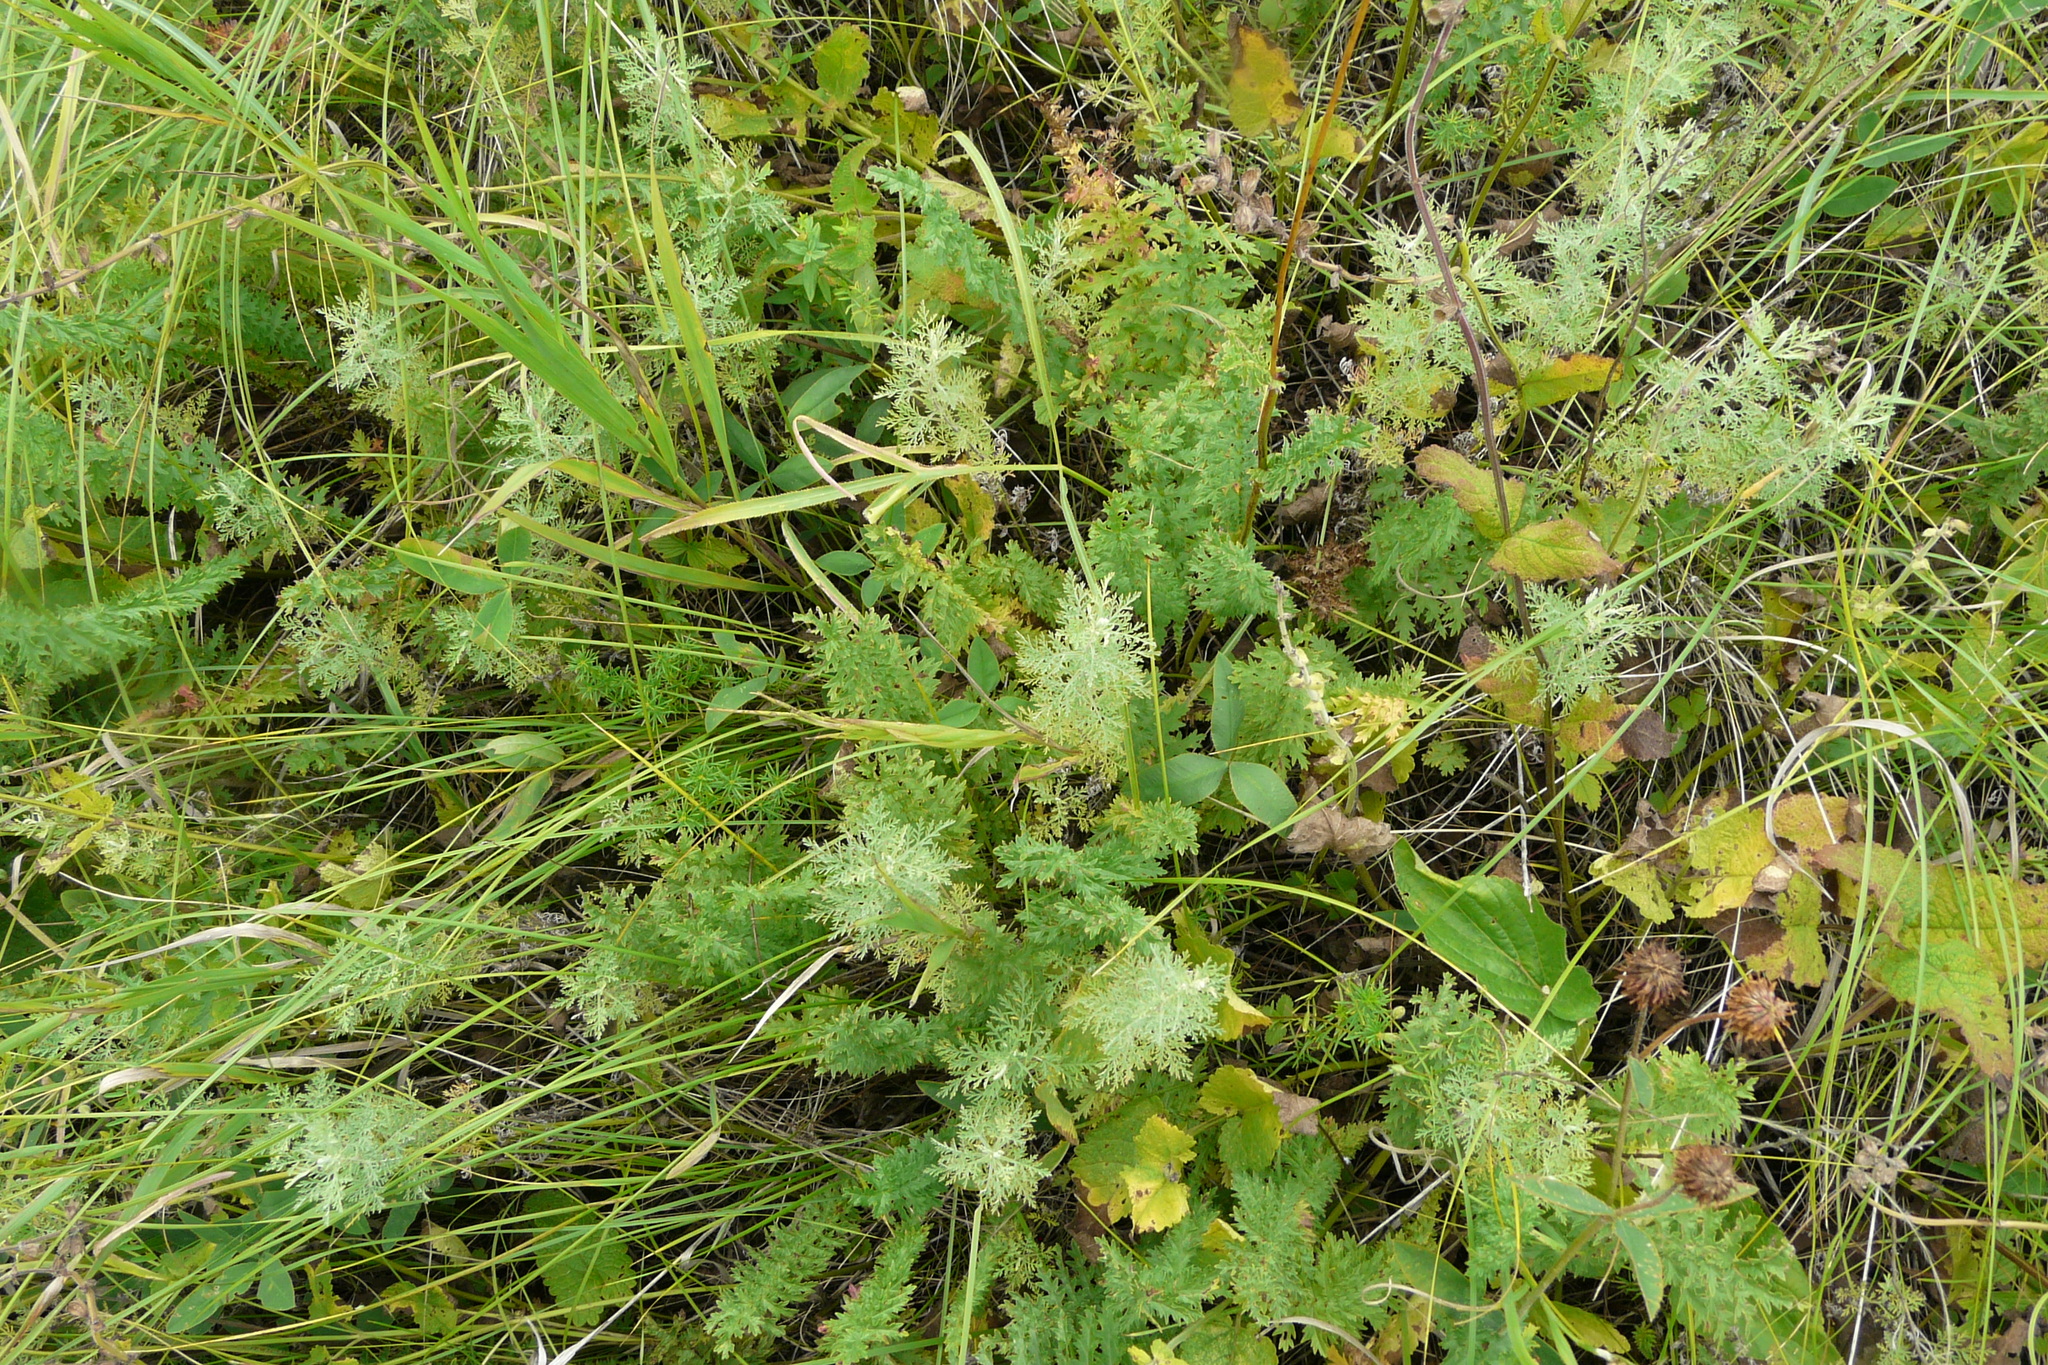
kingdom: Plantae
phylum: Tracheophyta
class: Magnoliopsida
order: Asterales
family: Asteraceae
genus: Artemisia
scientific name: Artemisia pontica
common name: Roman wormwood
